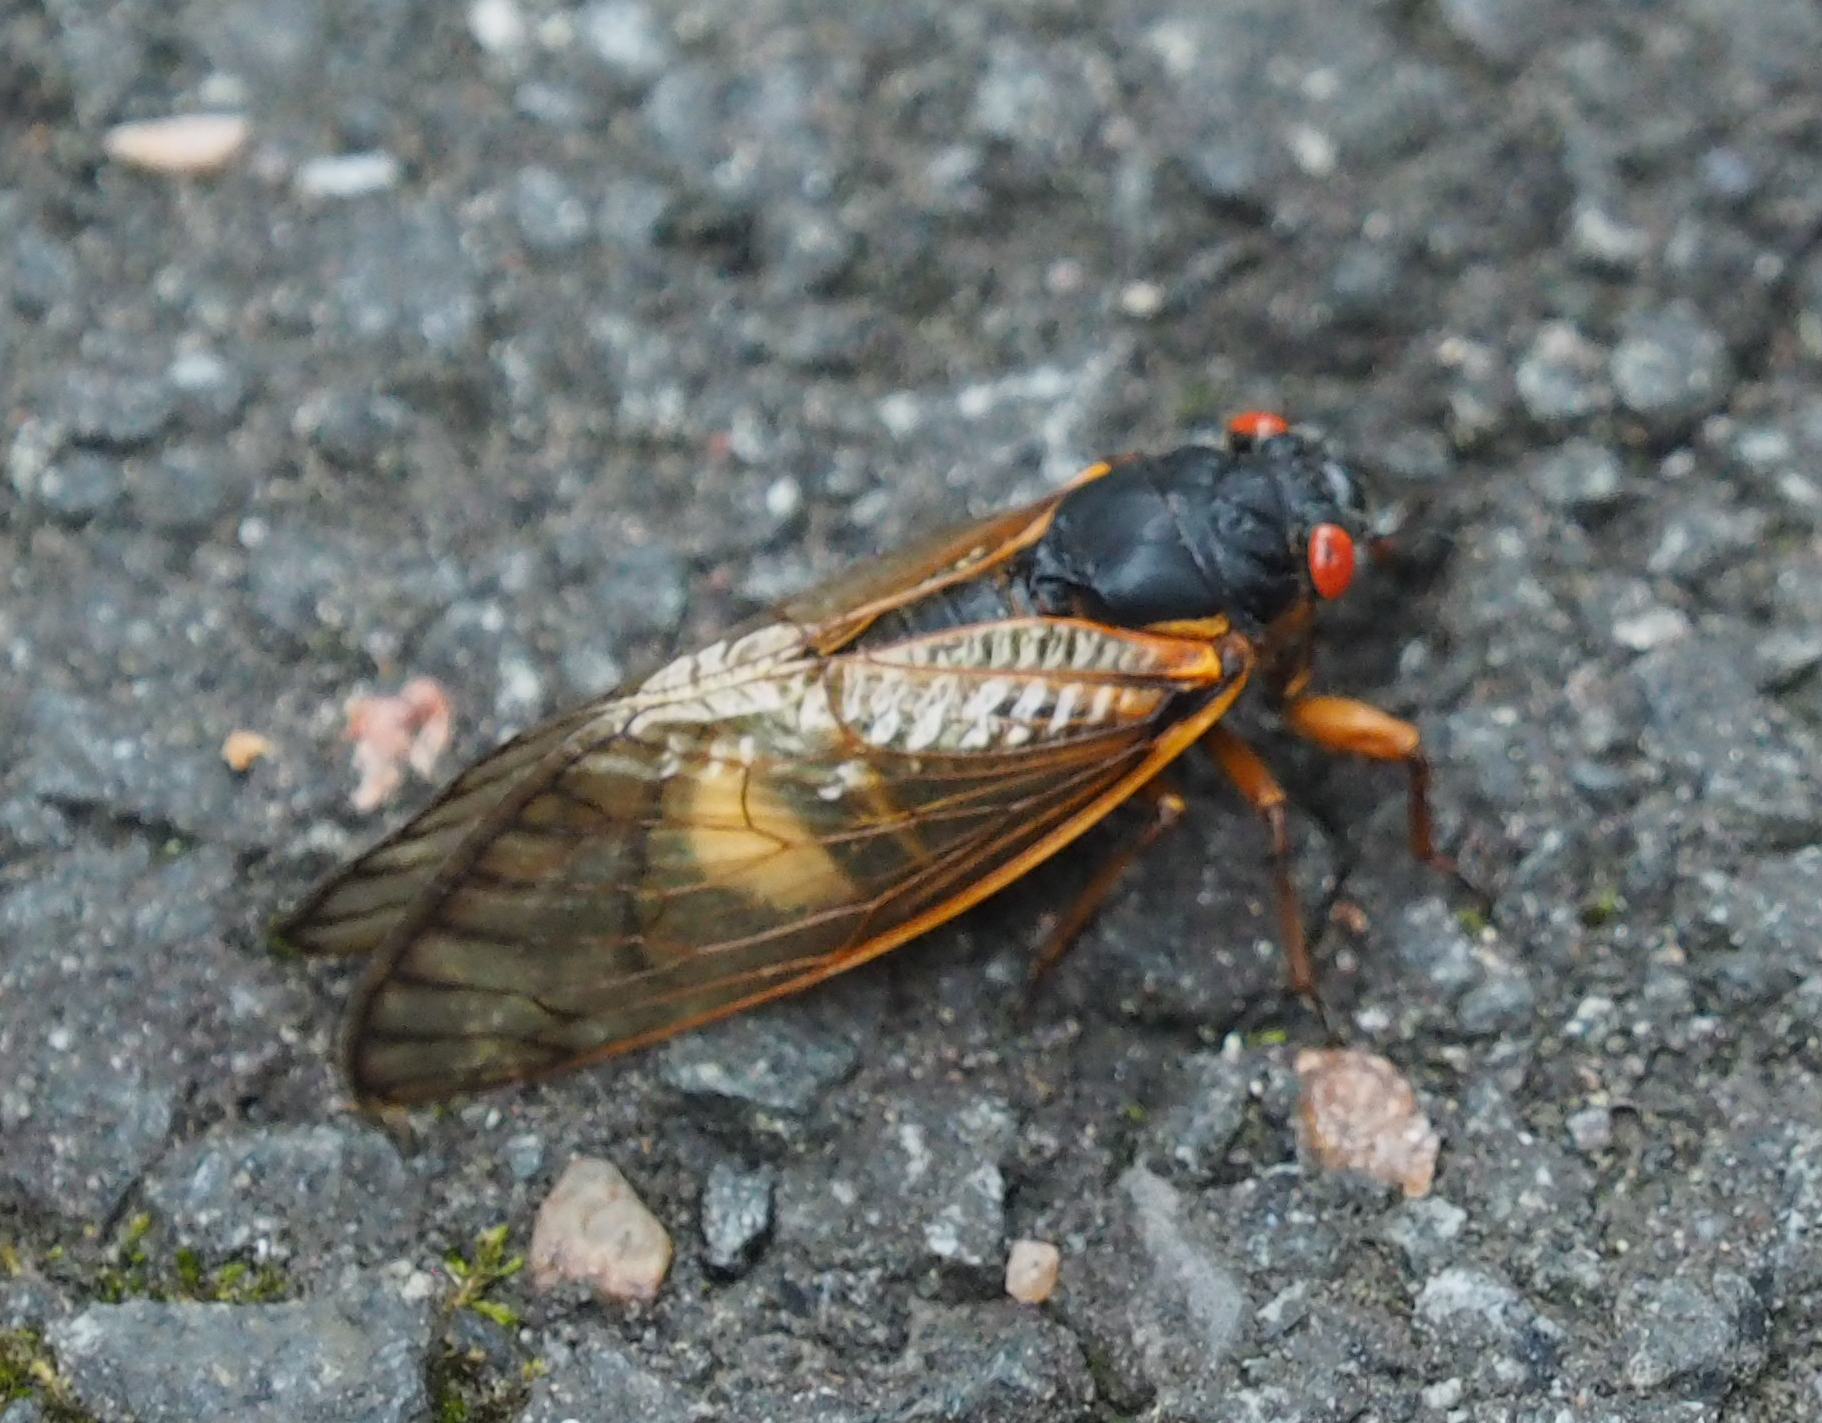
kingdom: Fungi
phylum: Entomophthoromycota
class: Entomophthoromycetes
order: Entomophthorales
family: Entomophthoraceae
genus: Massospora
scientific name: Massospora cicadina
